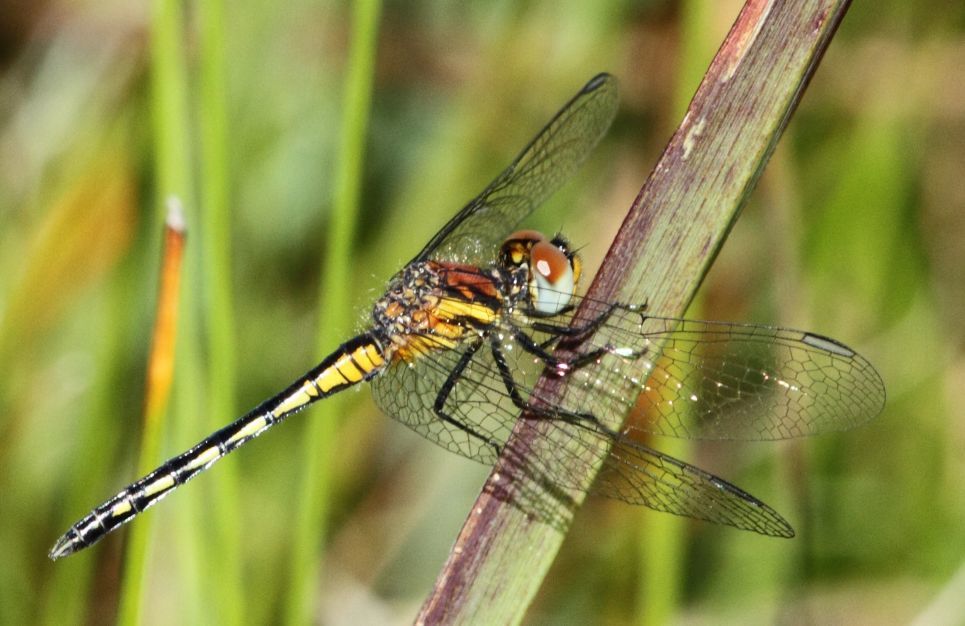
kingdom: Animalia
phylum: Arthropoda
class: Insecta
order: Odonata
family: Libellulidae
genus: Diplacodes
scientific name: Diplacodes pumila
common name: Dwarf percher
